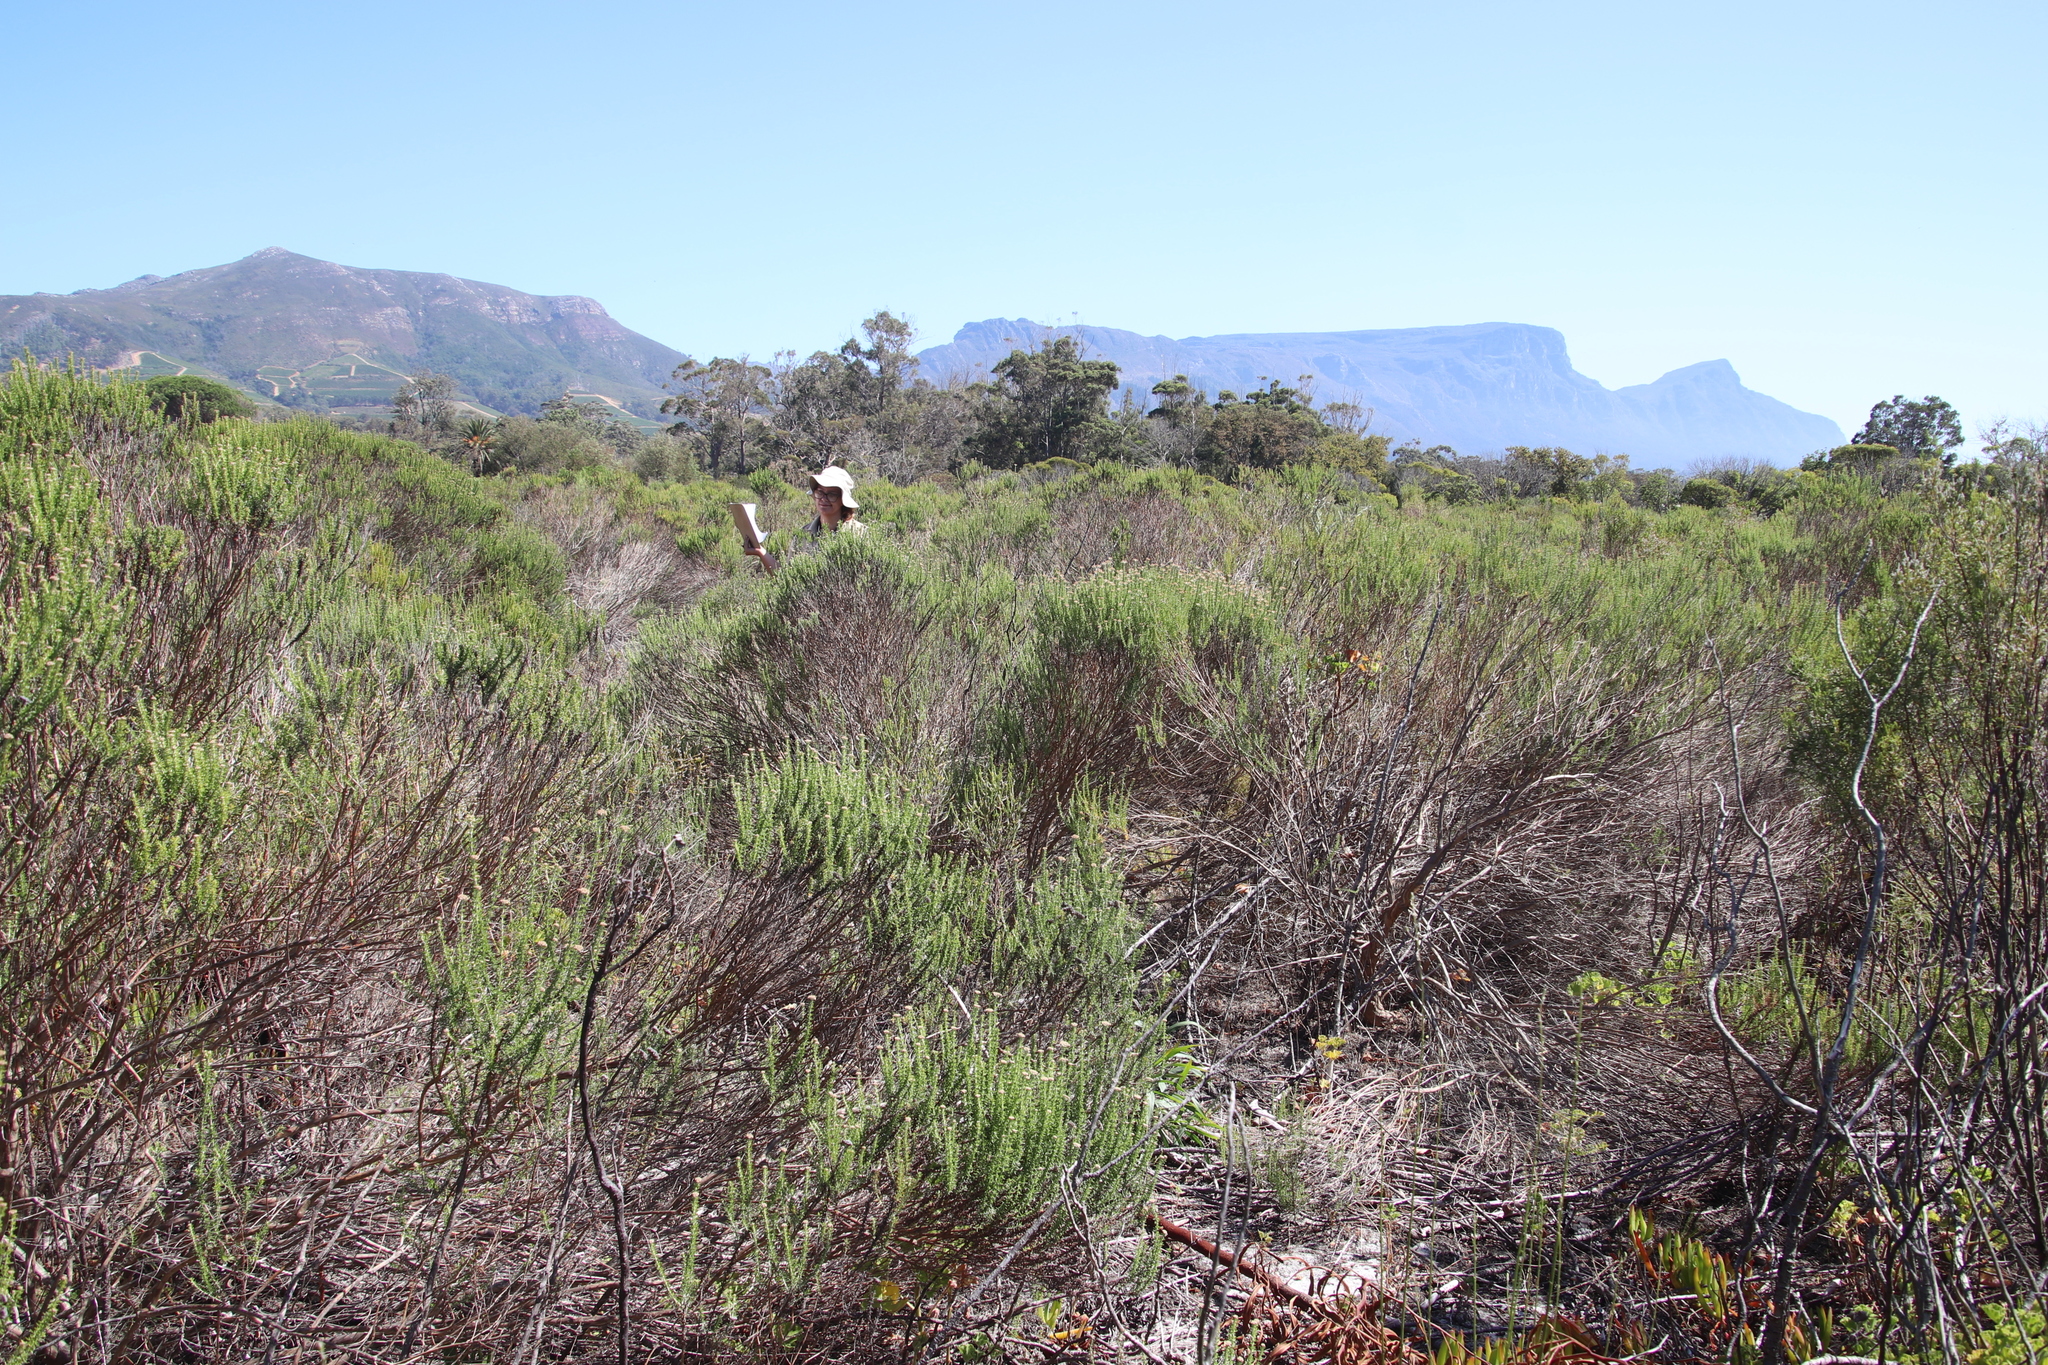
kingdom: Plantae
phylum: Tracheophyta
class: Magnoliopsida
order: Asterales
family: Asteraceae
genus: Metalasia
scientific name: Metalasia densa
